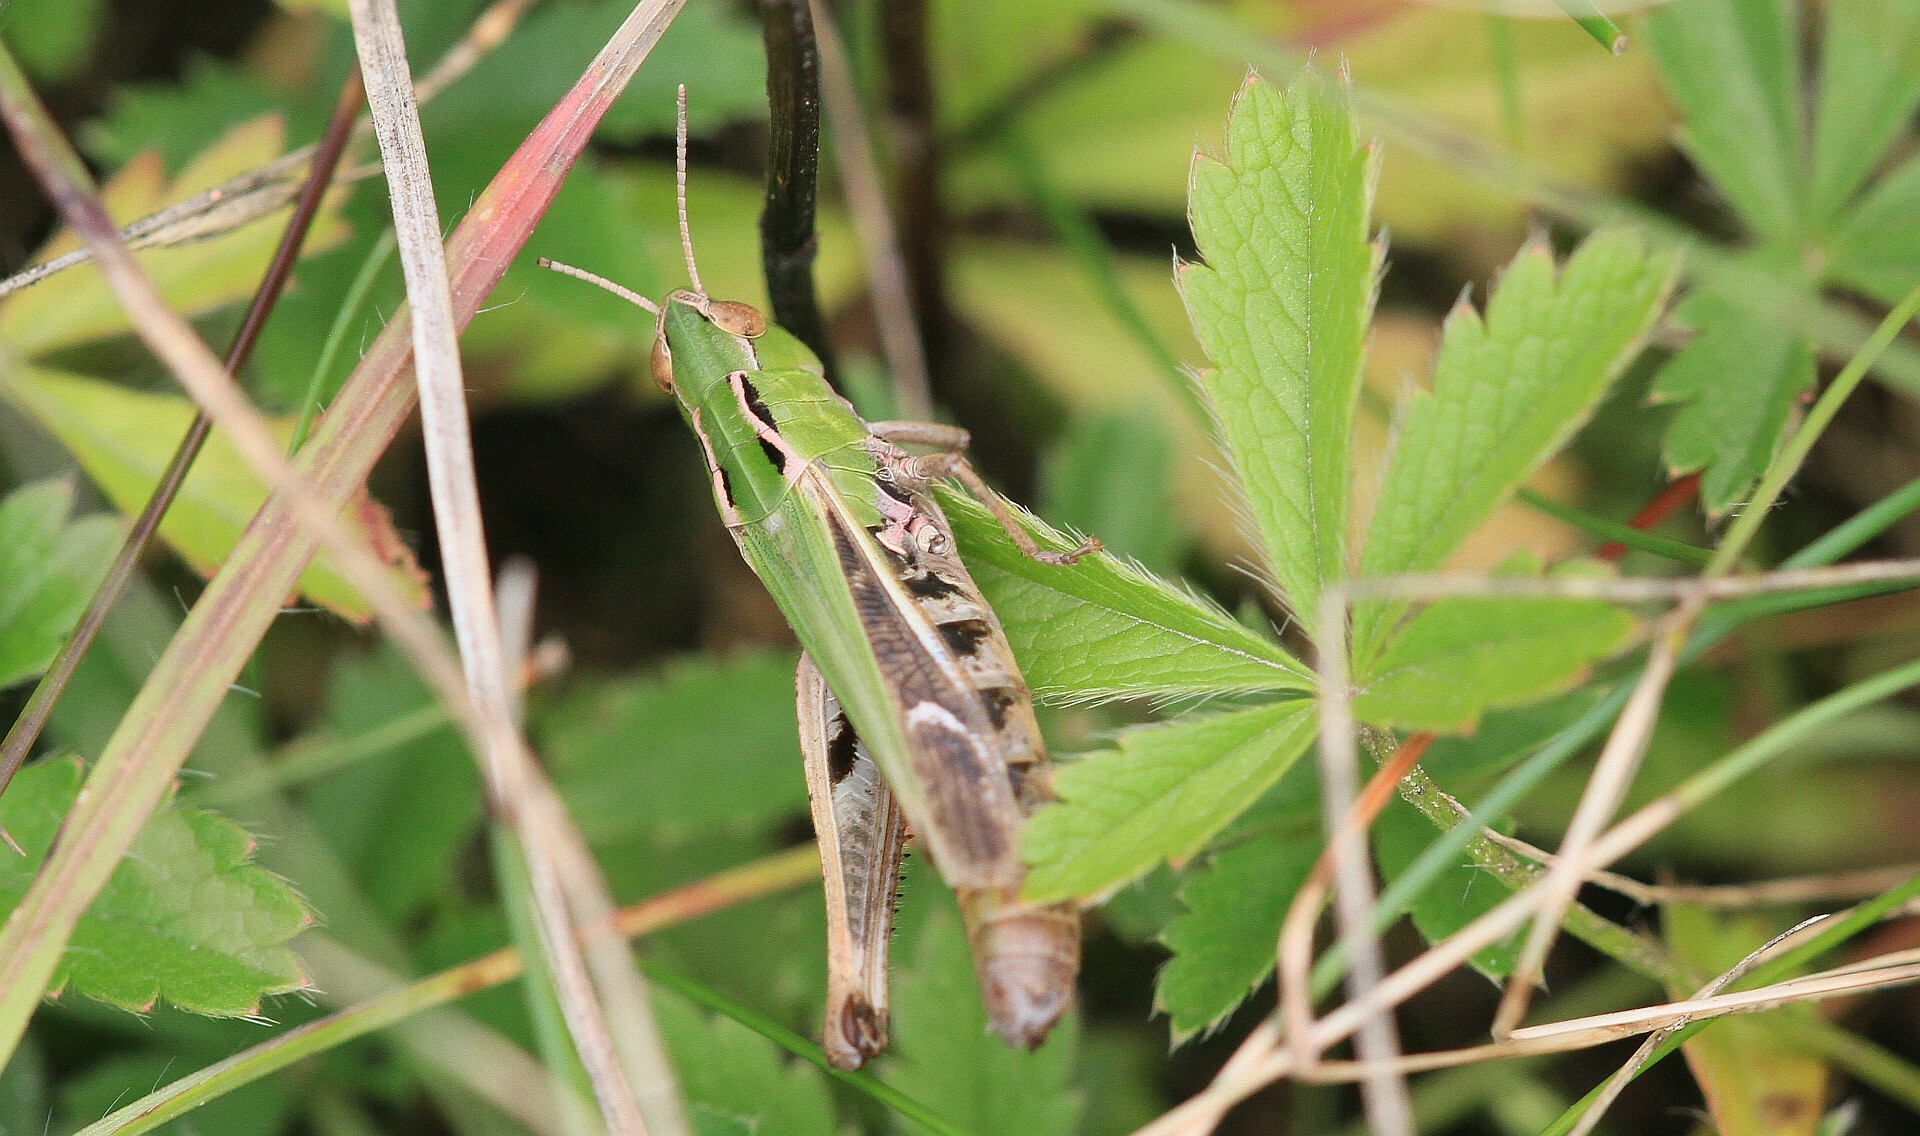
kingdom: Animalia
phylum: Arthropoda
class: Insecta
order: Orthoptera
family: Acrididae
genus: Stenobothrus
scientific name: Stenobothrus lineatus
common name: Stripe-winged grasshopper
